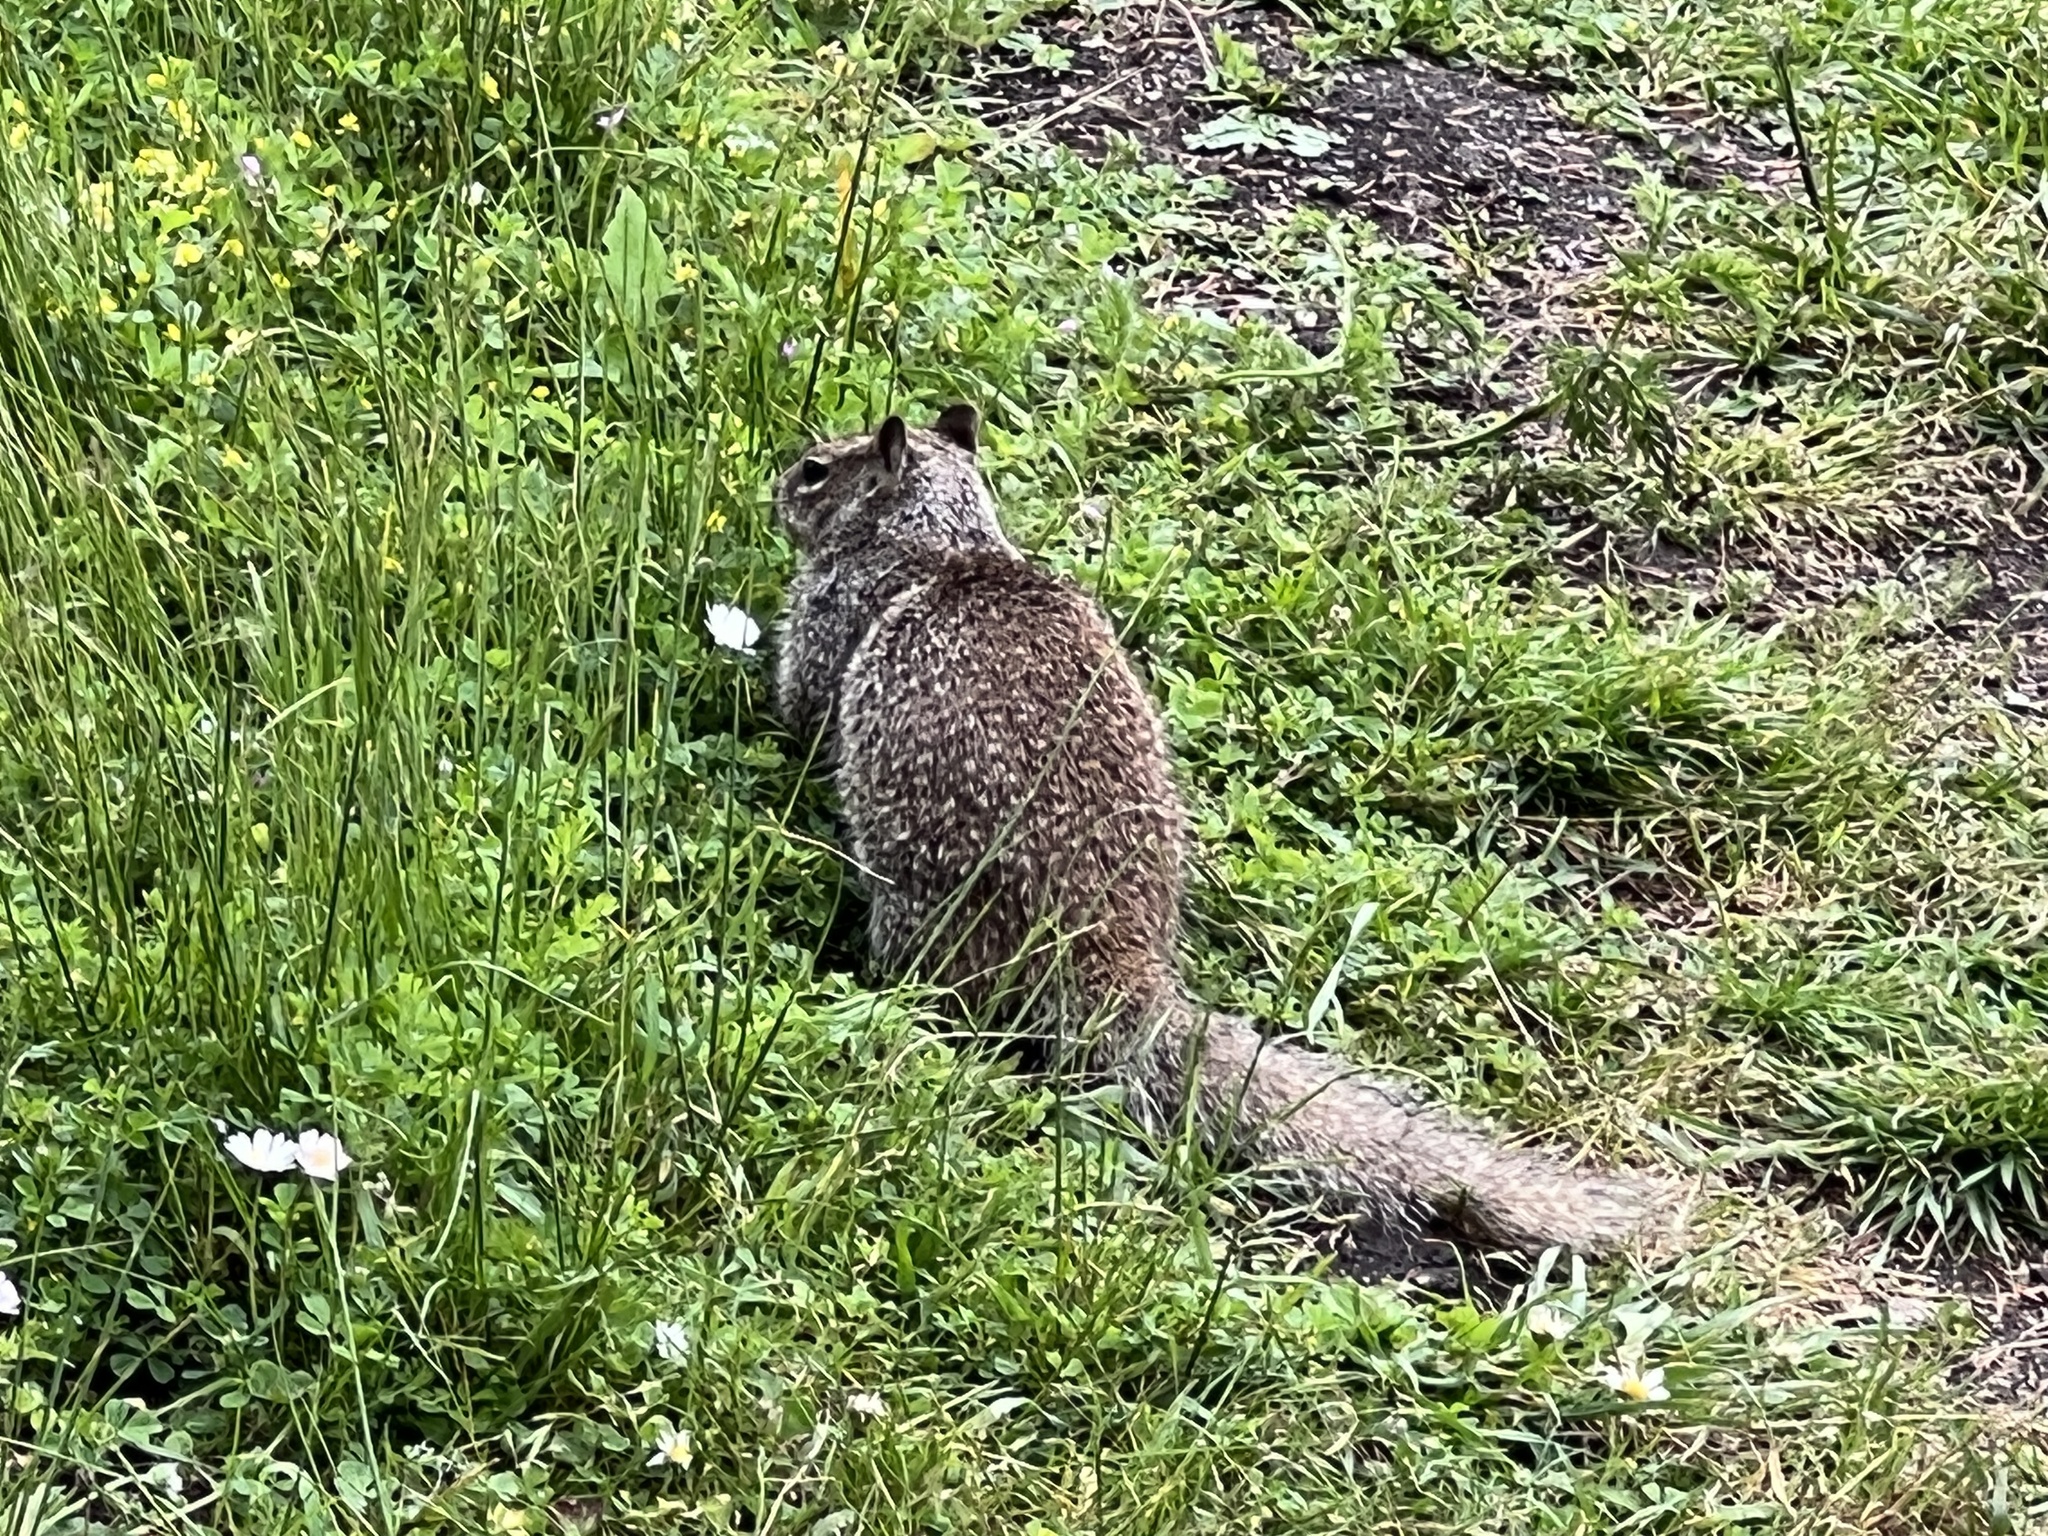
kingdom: Animalia
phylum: Chordata
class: Mammalia
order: Rodentia
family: Sciuridae
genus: Otospermophilus
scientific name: Otospermophilus beecheyi
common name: California ground squirrel
